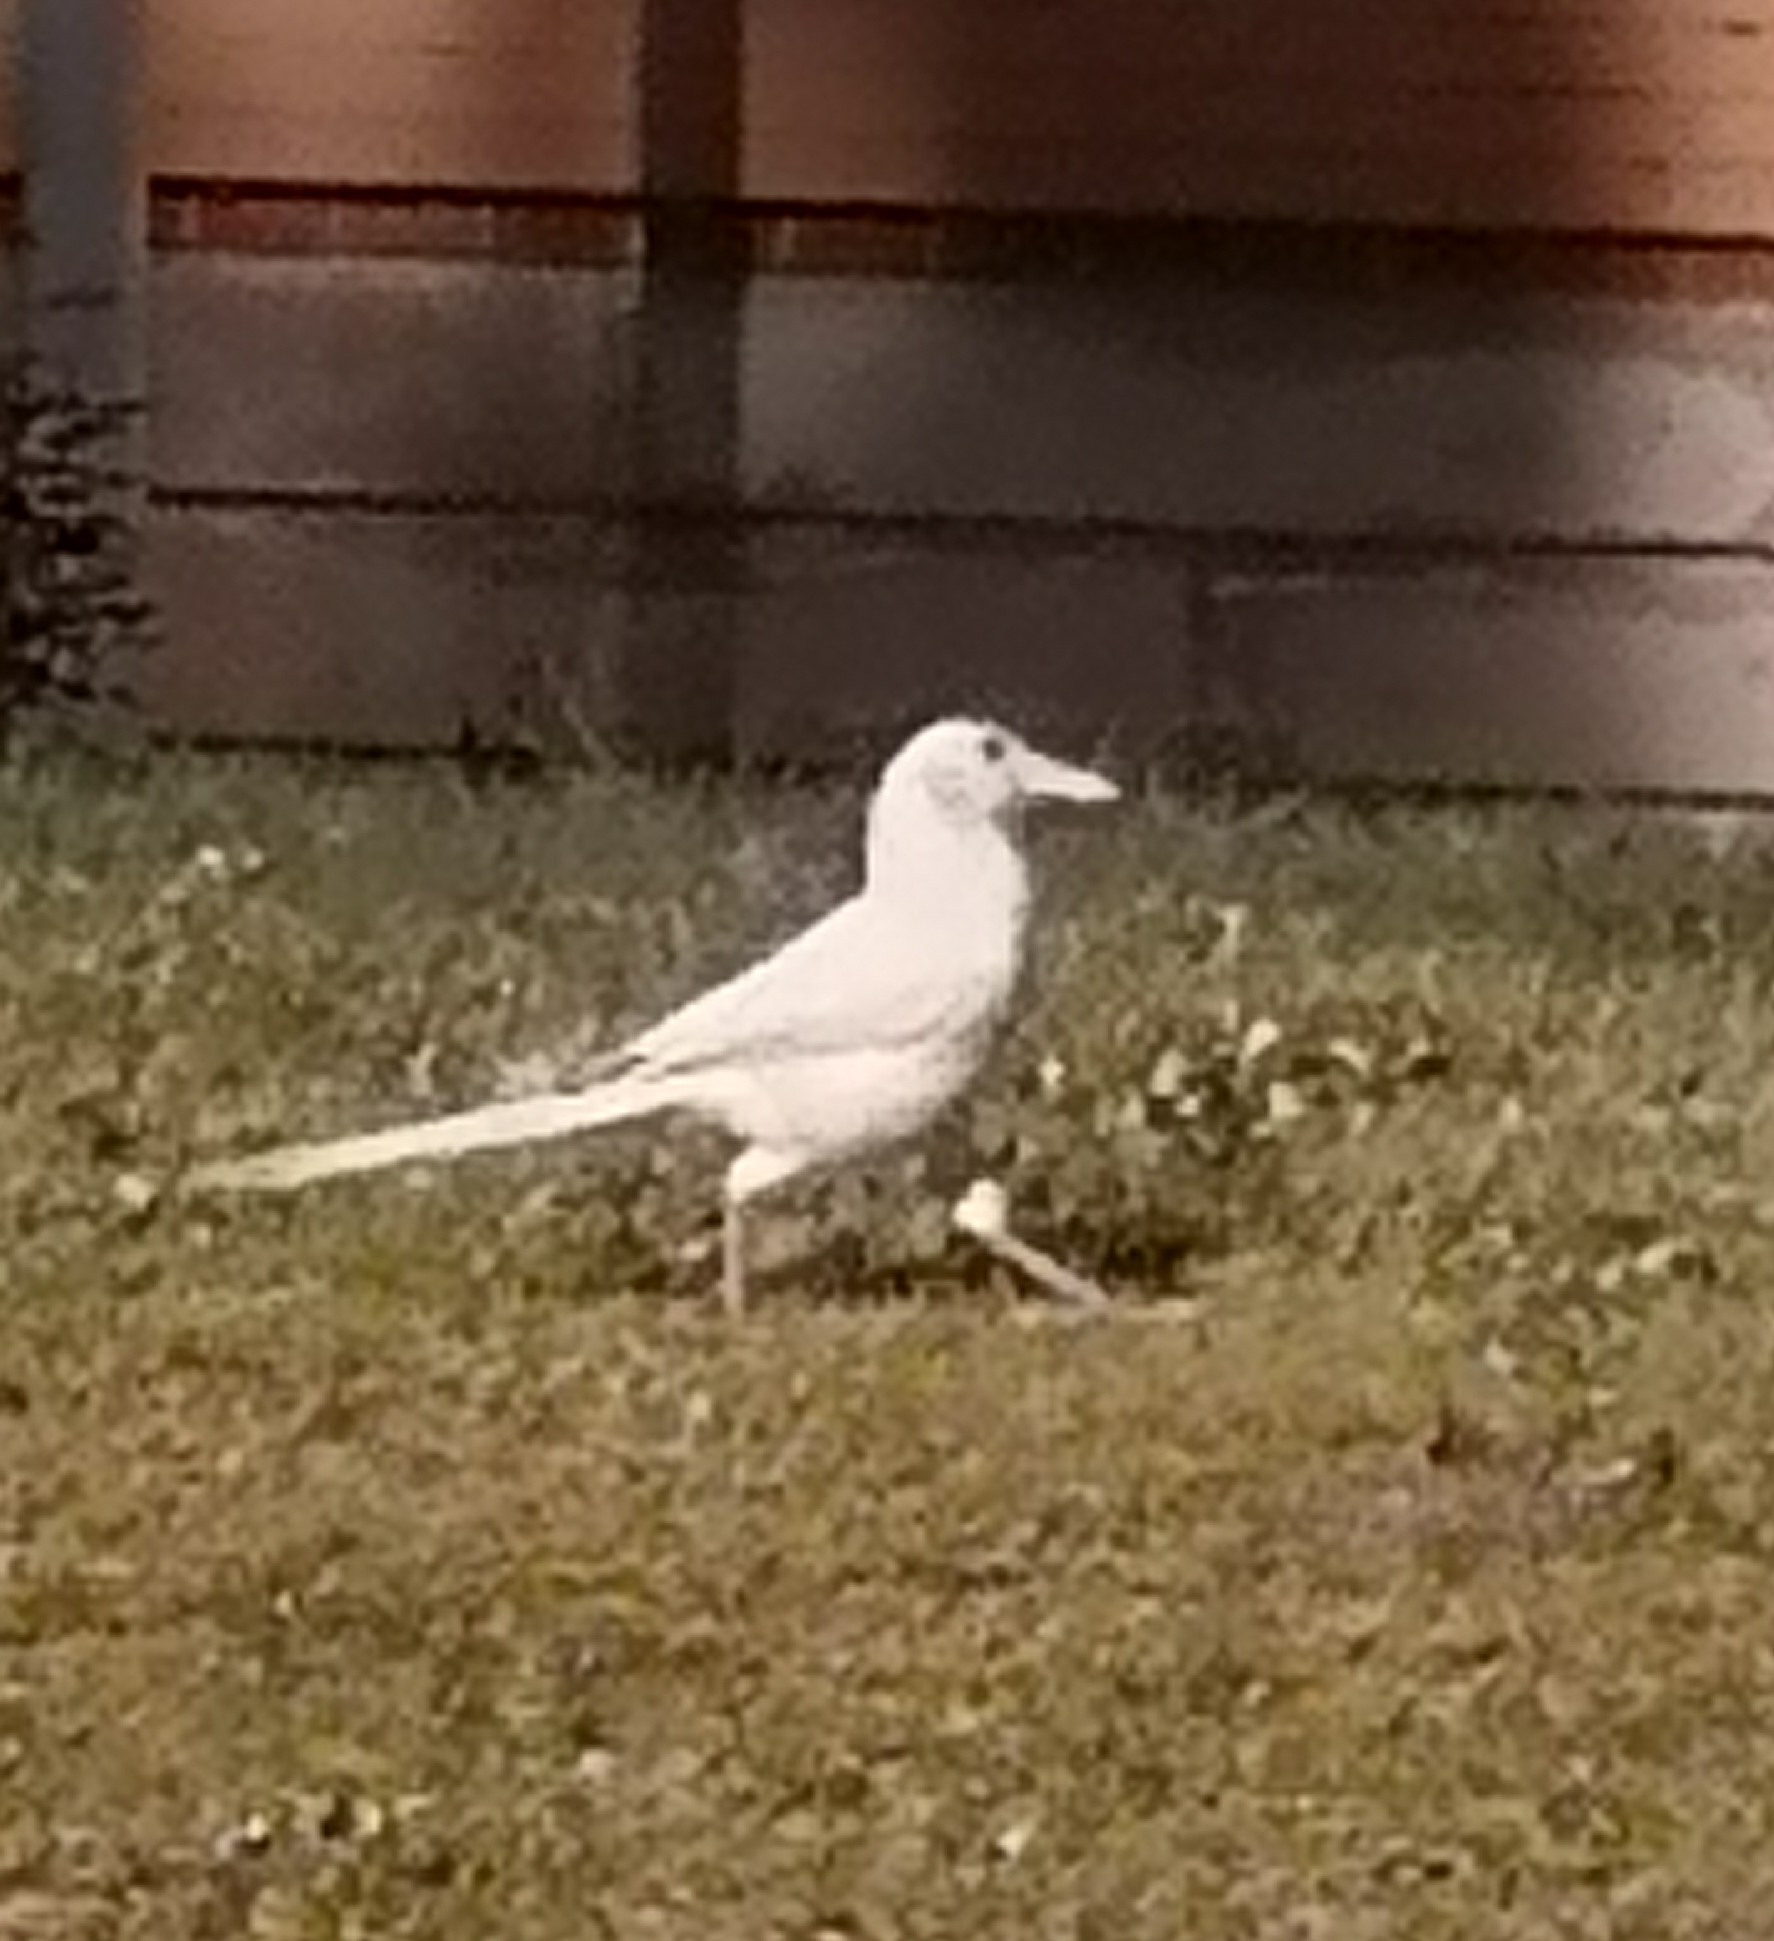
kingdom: Animalia
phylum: Chordata
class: Aves
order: Passeriformes
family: Corvidae
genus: Pica
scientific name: Pica pica
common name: Eurasian magpie
